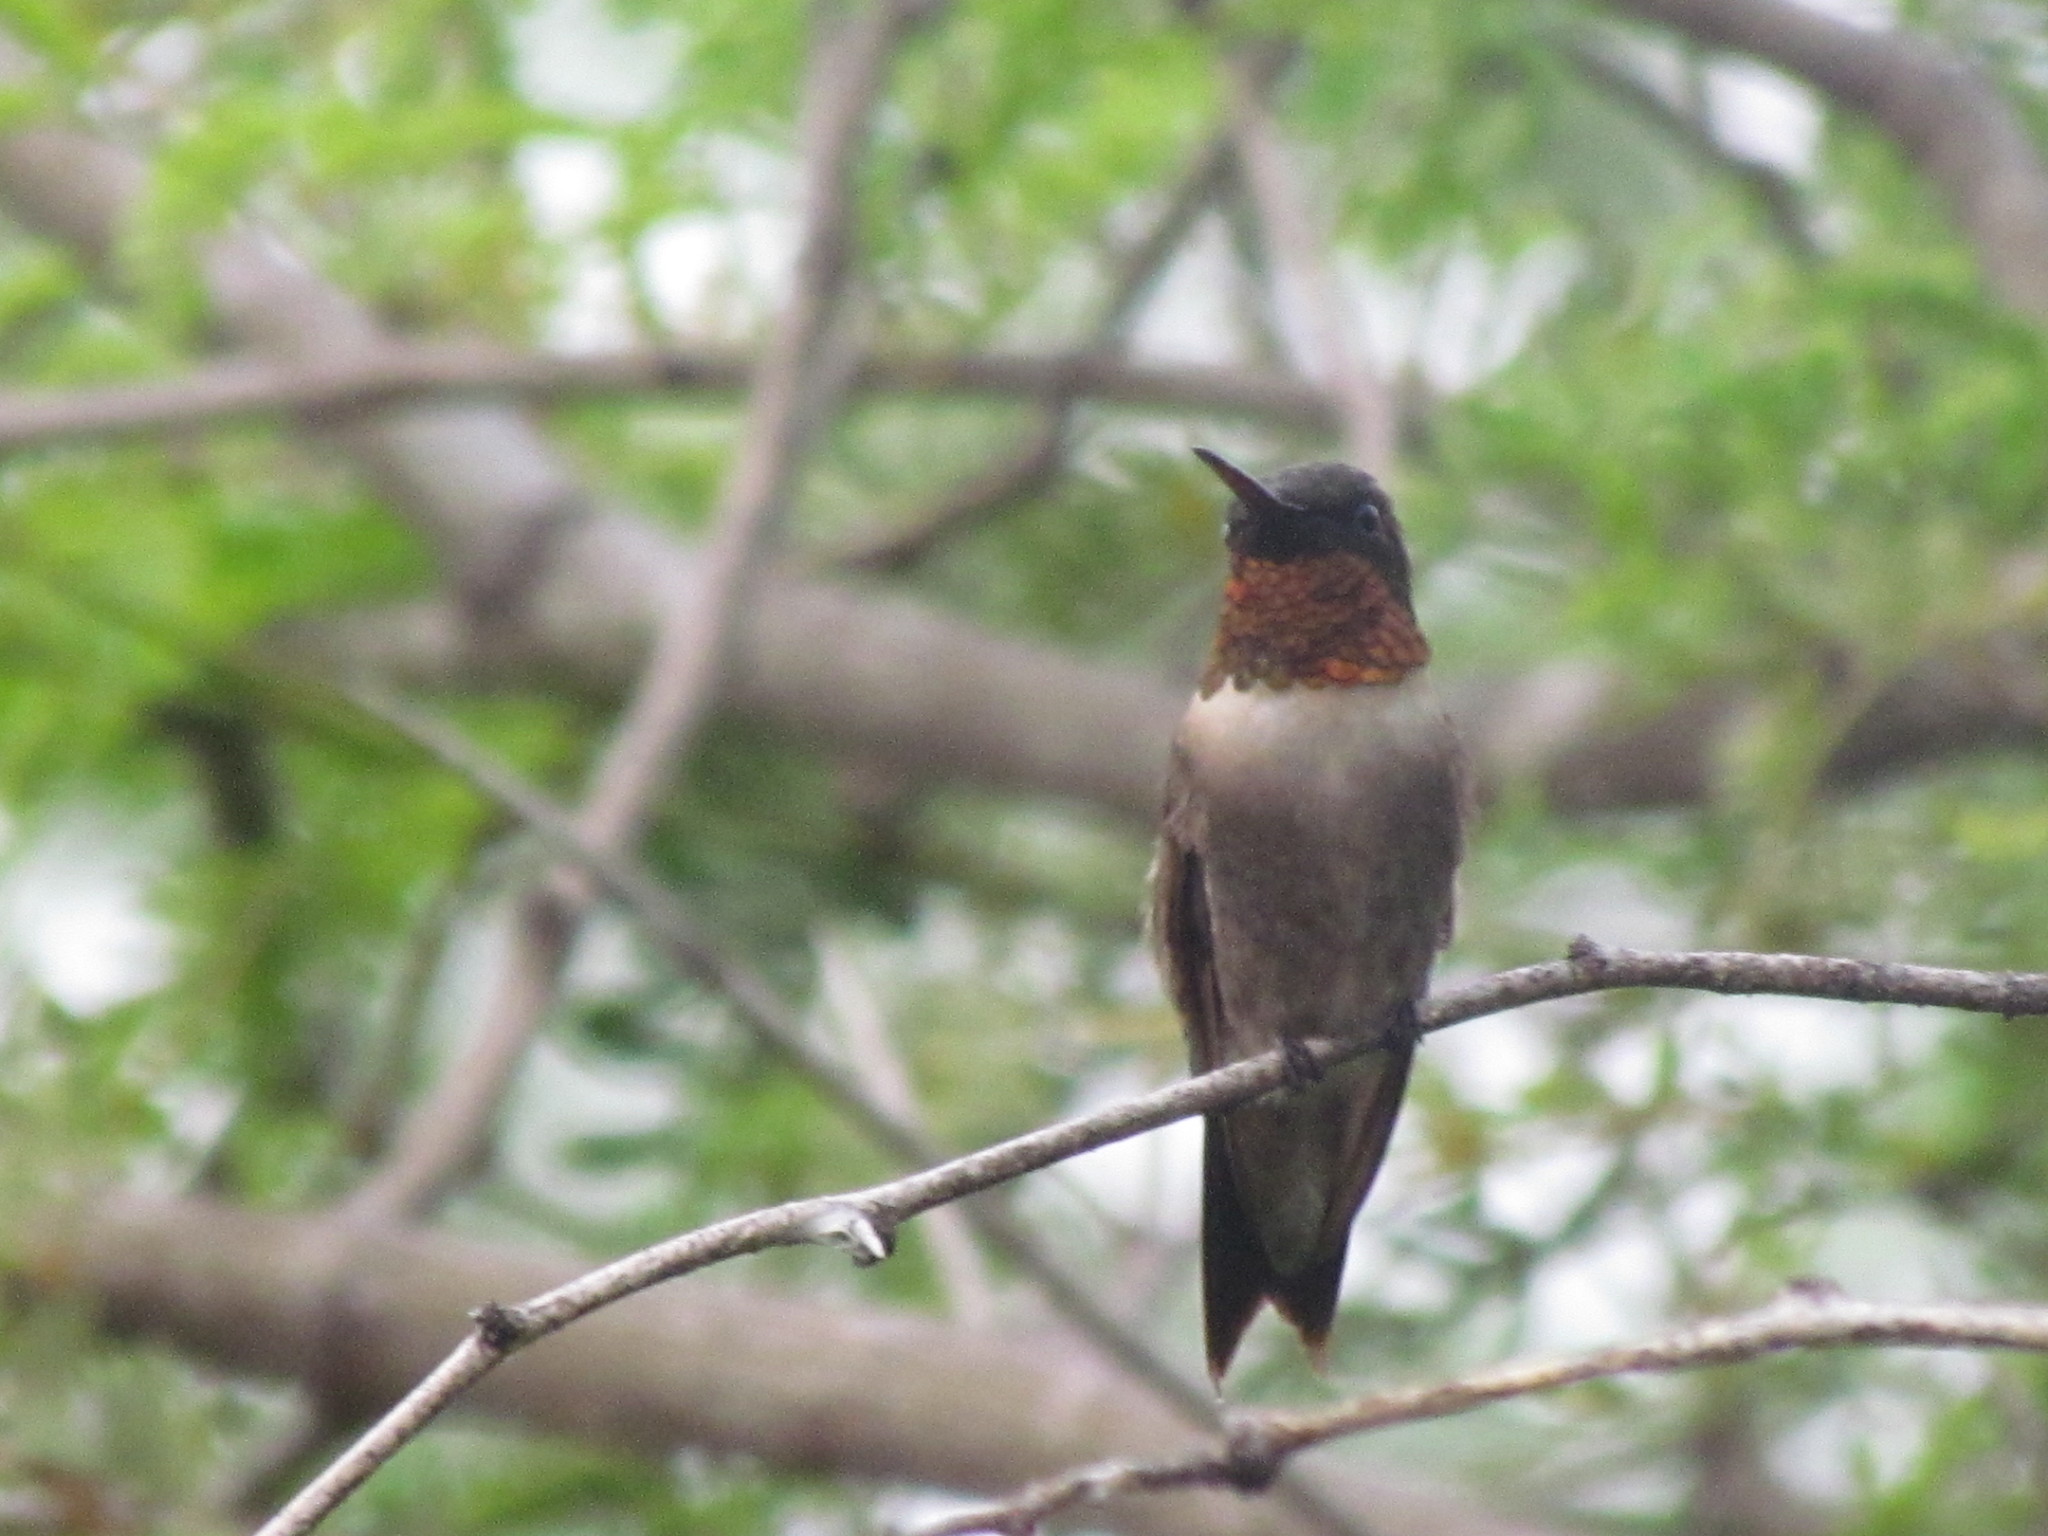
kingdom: Animalia
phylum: Chordata
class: Aves
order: Apodiformes
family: Trochilidae
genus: Archilochus
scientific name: Archilochus colubris
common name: Ruby-throated hummingbird
